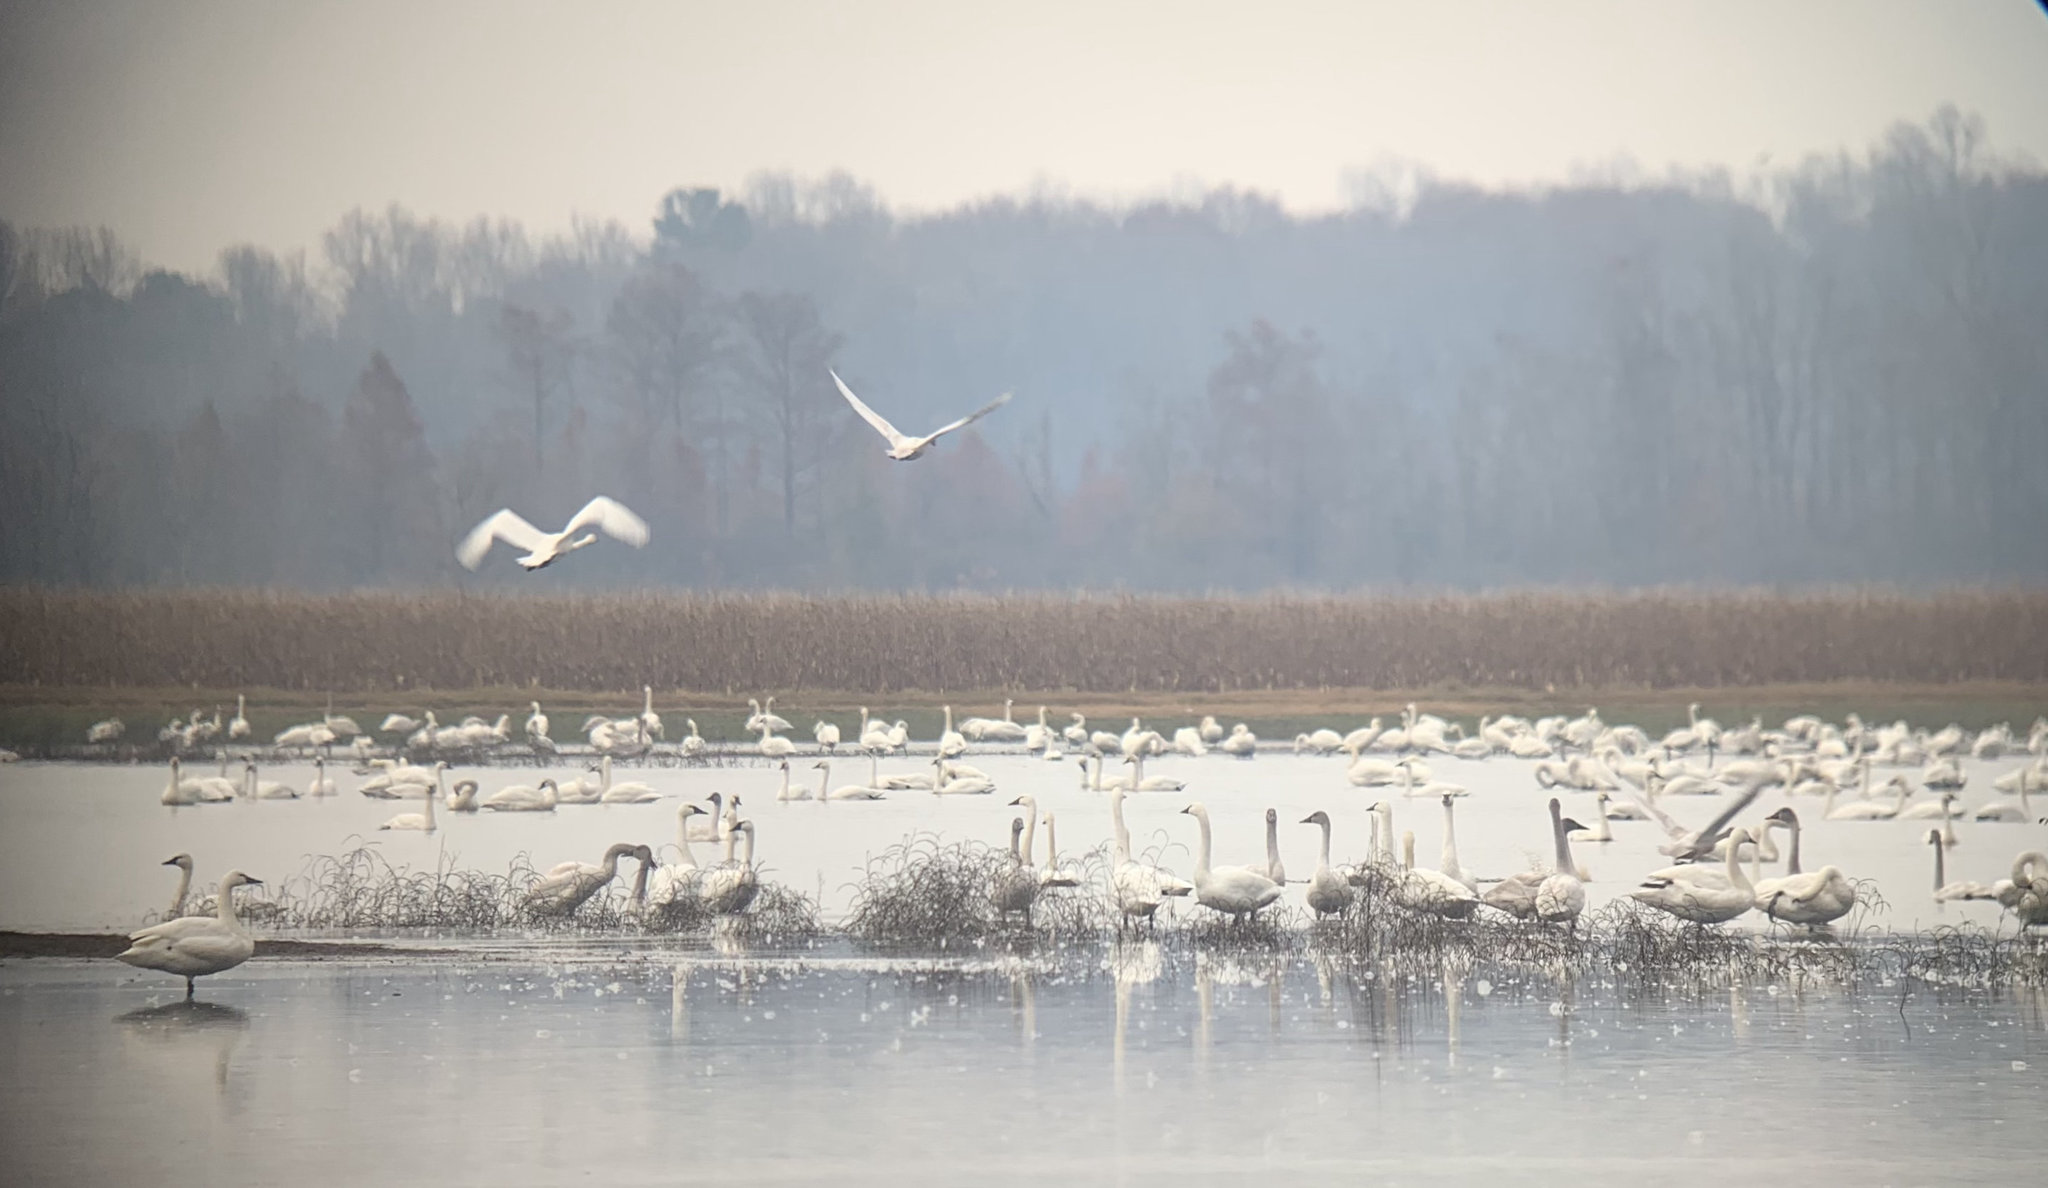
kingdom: Animalia
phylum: Chordata
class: Aves
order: Anseriformes
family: Anatidae
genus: Cygnus
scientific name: Cygnus columbianus
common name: Tundra swan
